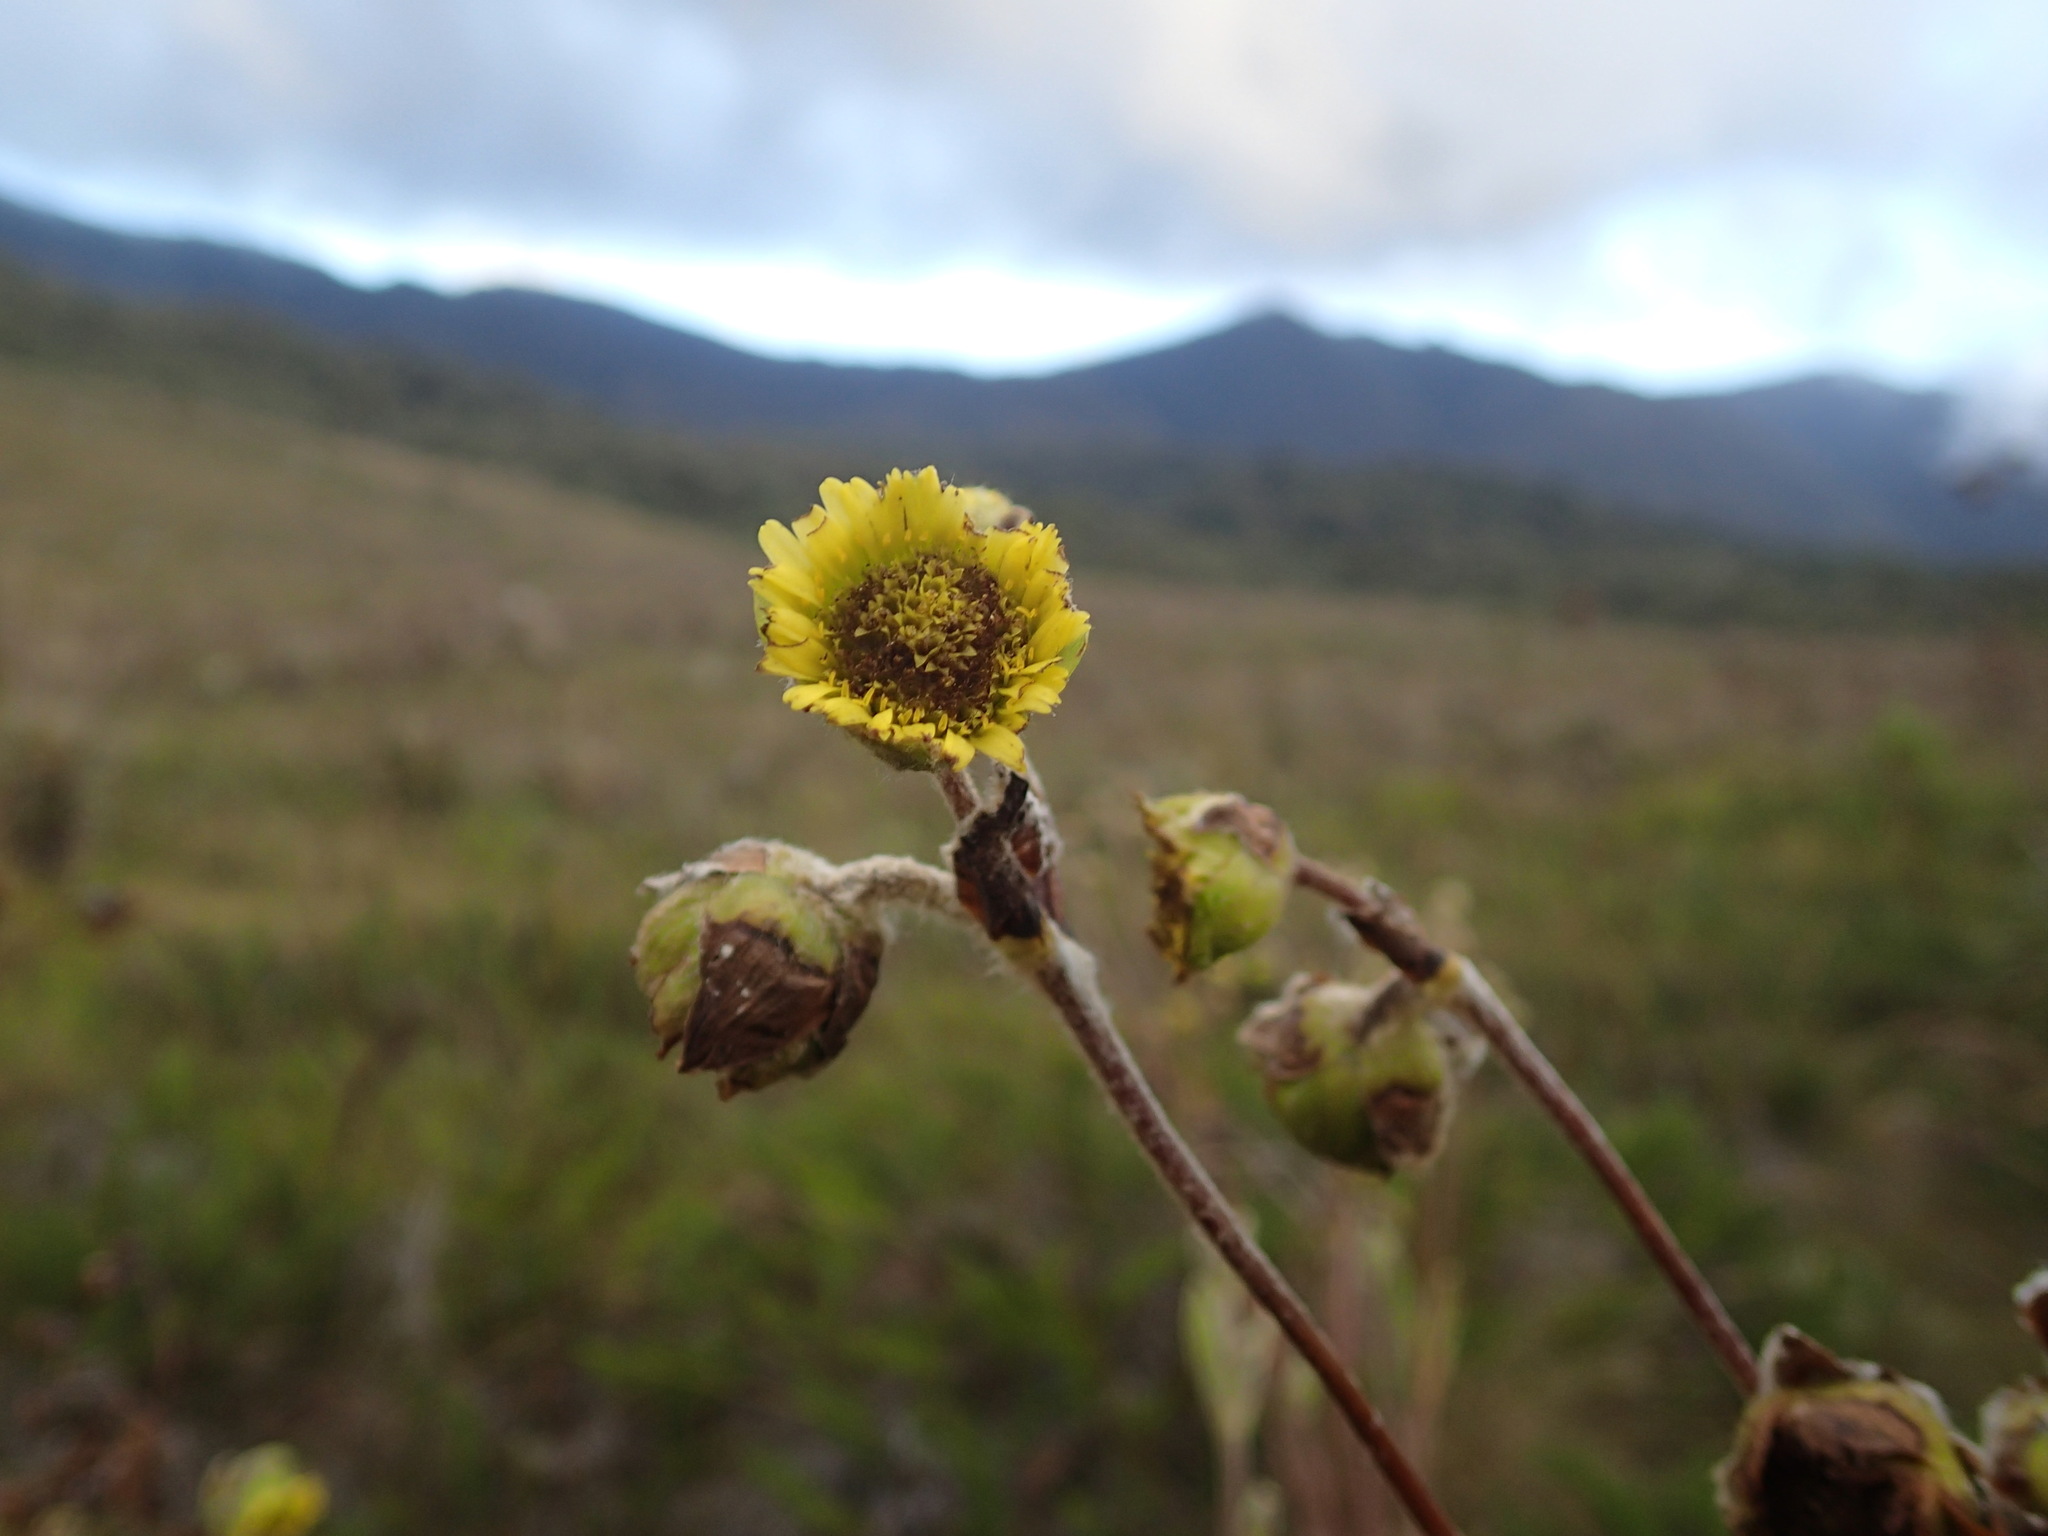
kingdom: Plantae
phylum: Tracheophyta
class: Magnoliopsida
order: Asterales
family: Asteraceae
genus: Espeletia
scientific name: Espeletia steyermarkii
